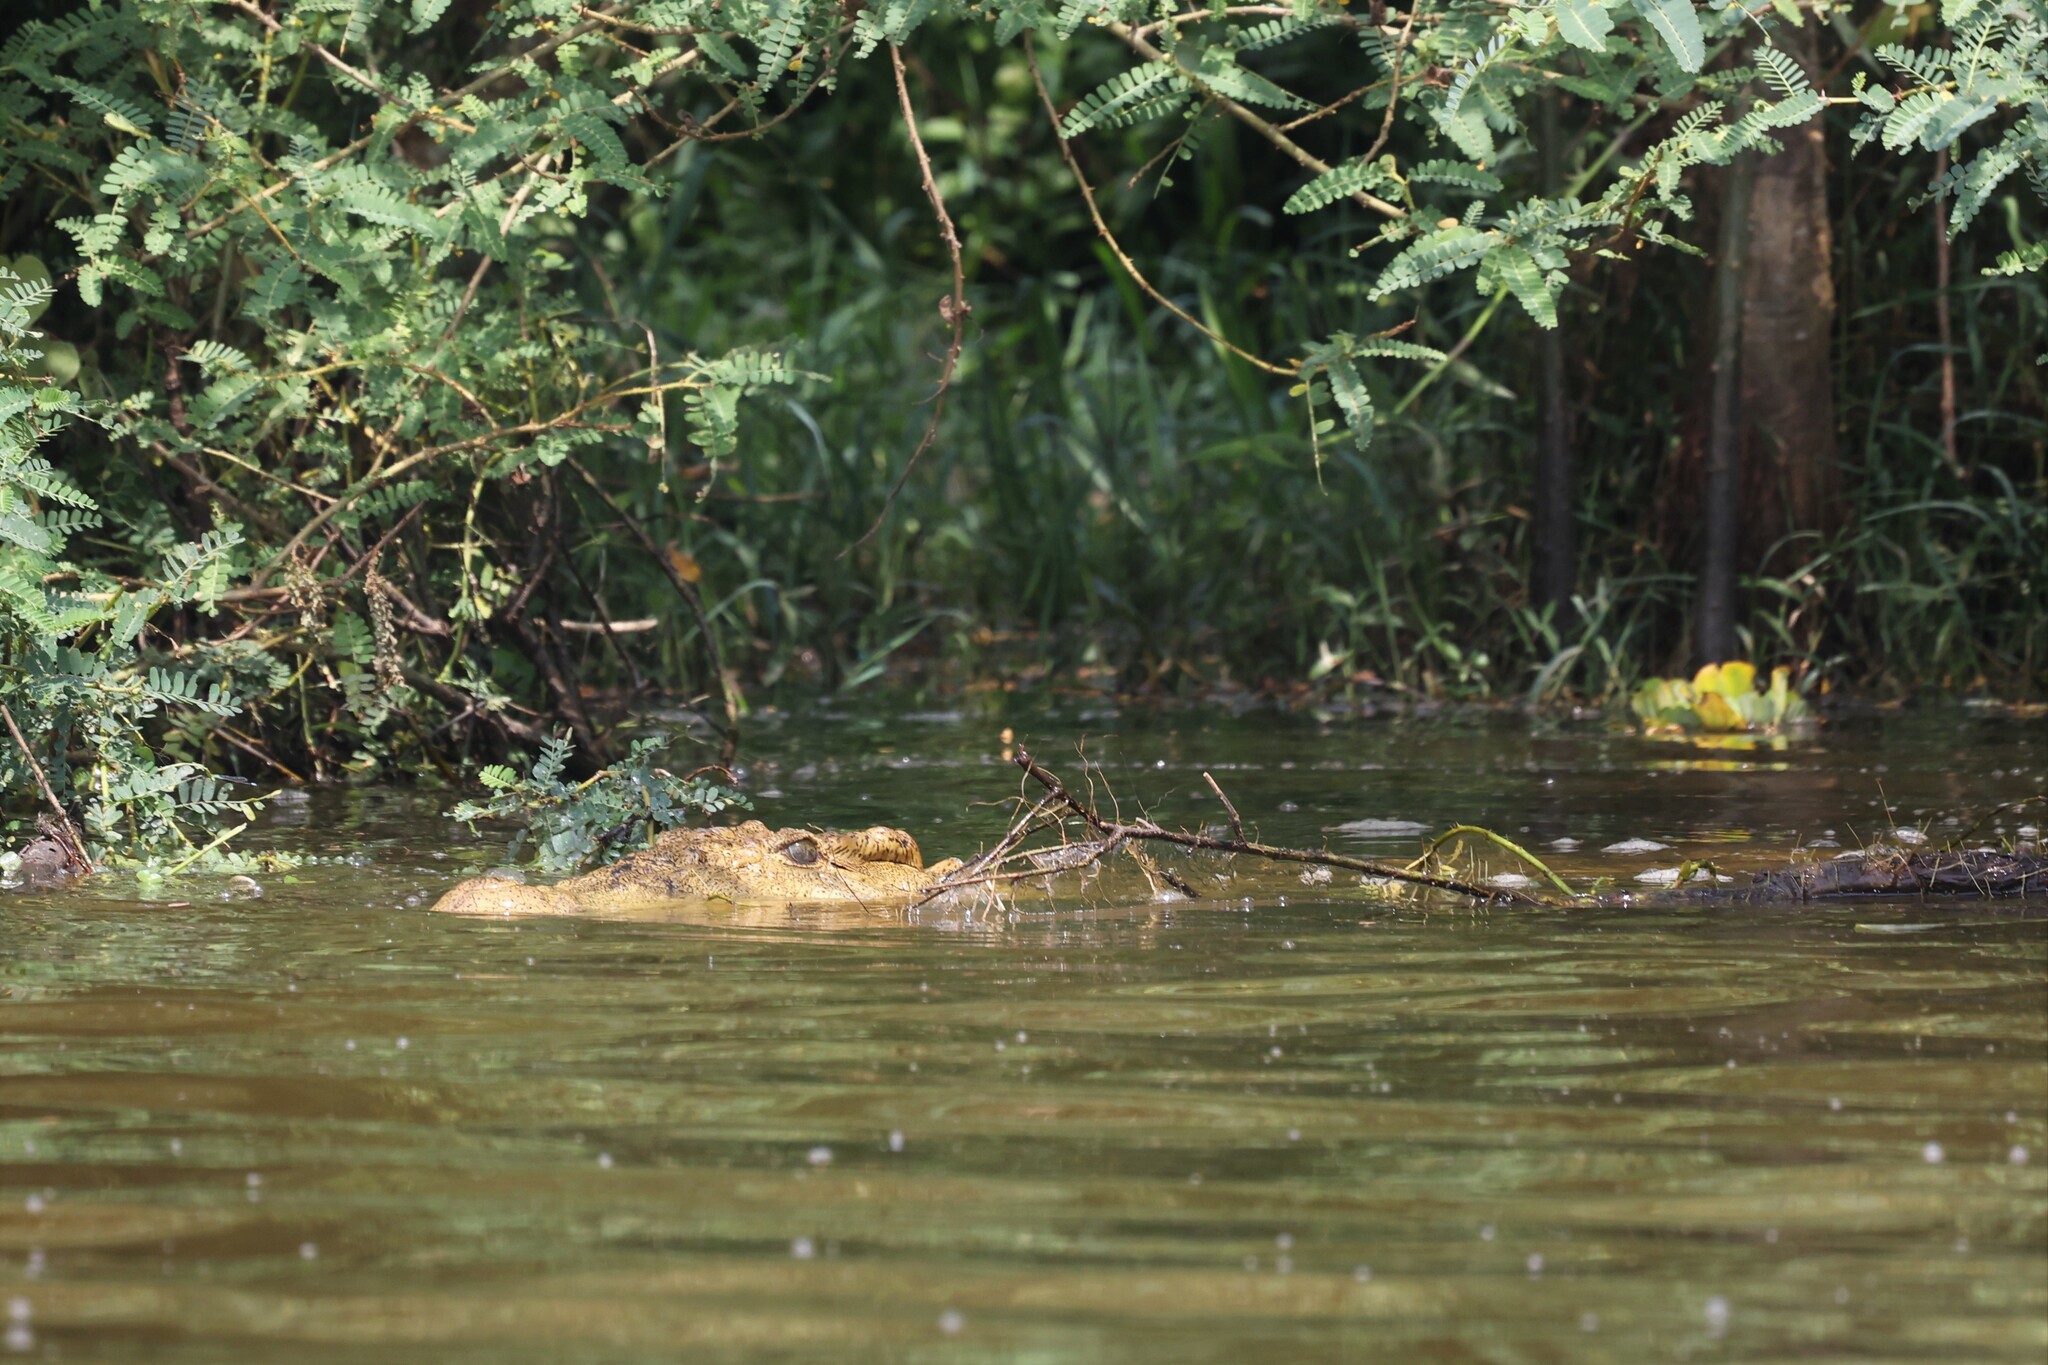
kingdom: Animalia
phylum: Chordata
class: Crocodylia
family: Crocodylidae
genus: Crocodylus
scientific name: Crocodylus niloticus
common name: Nile crocodile
